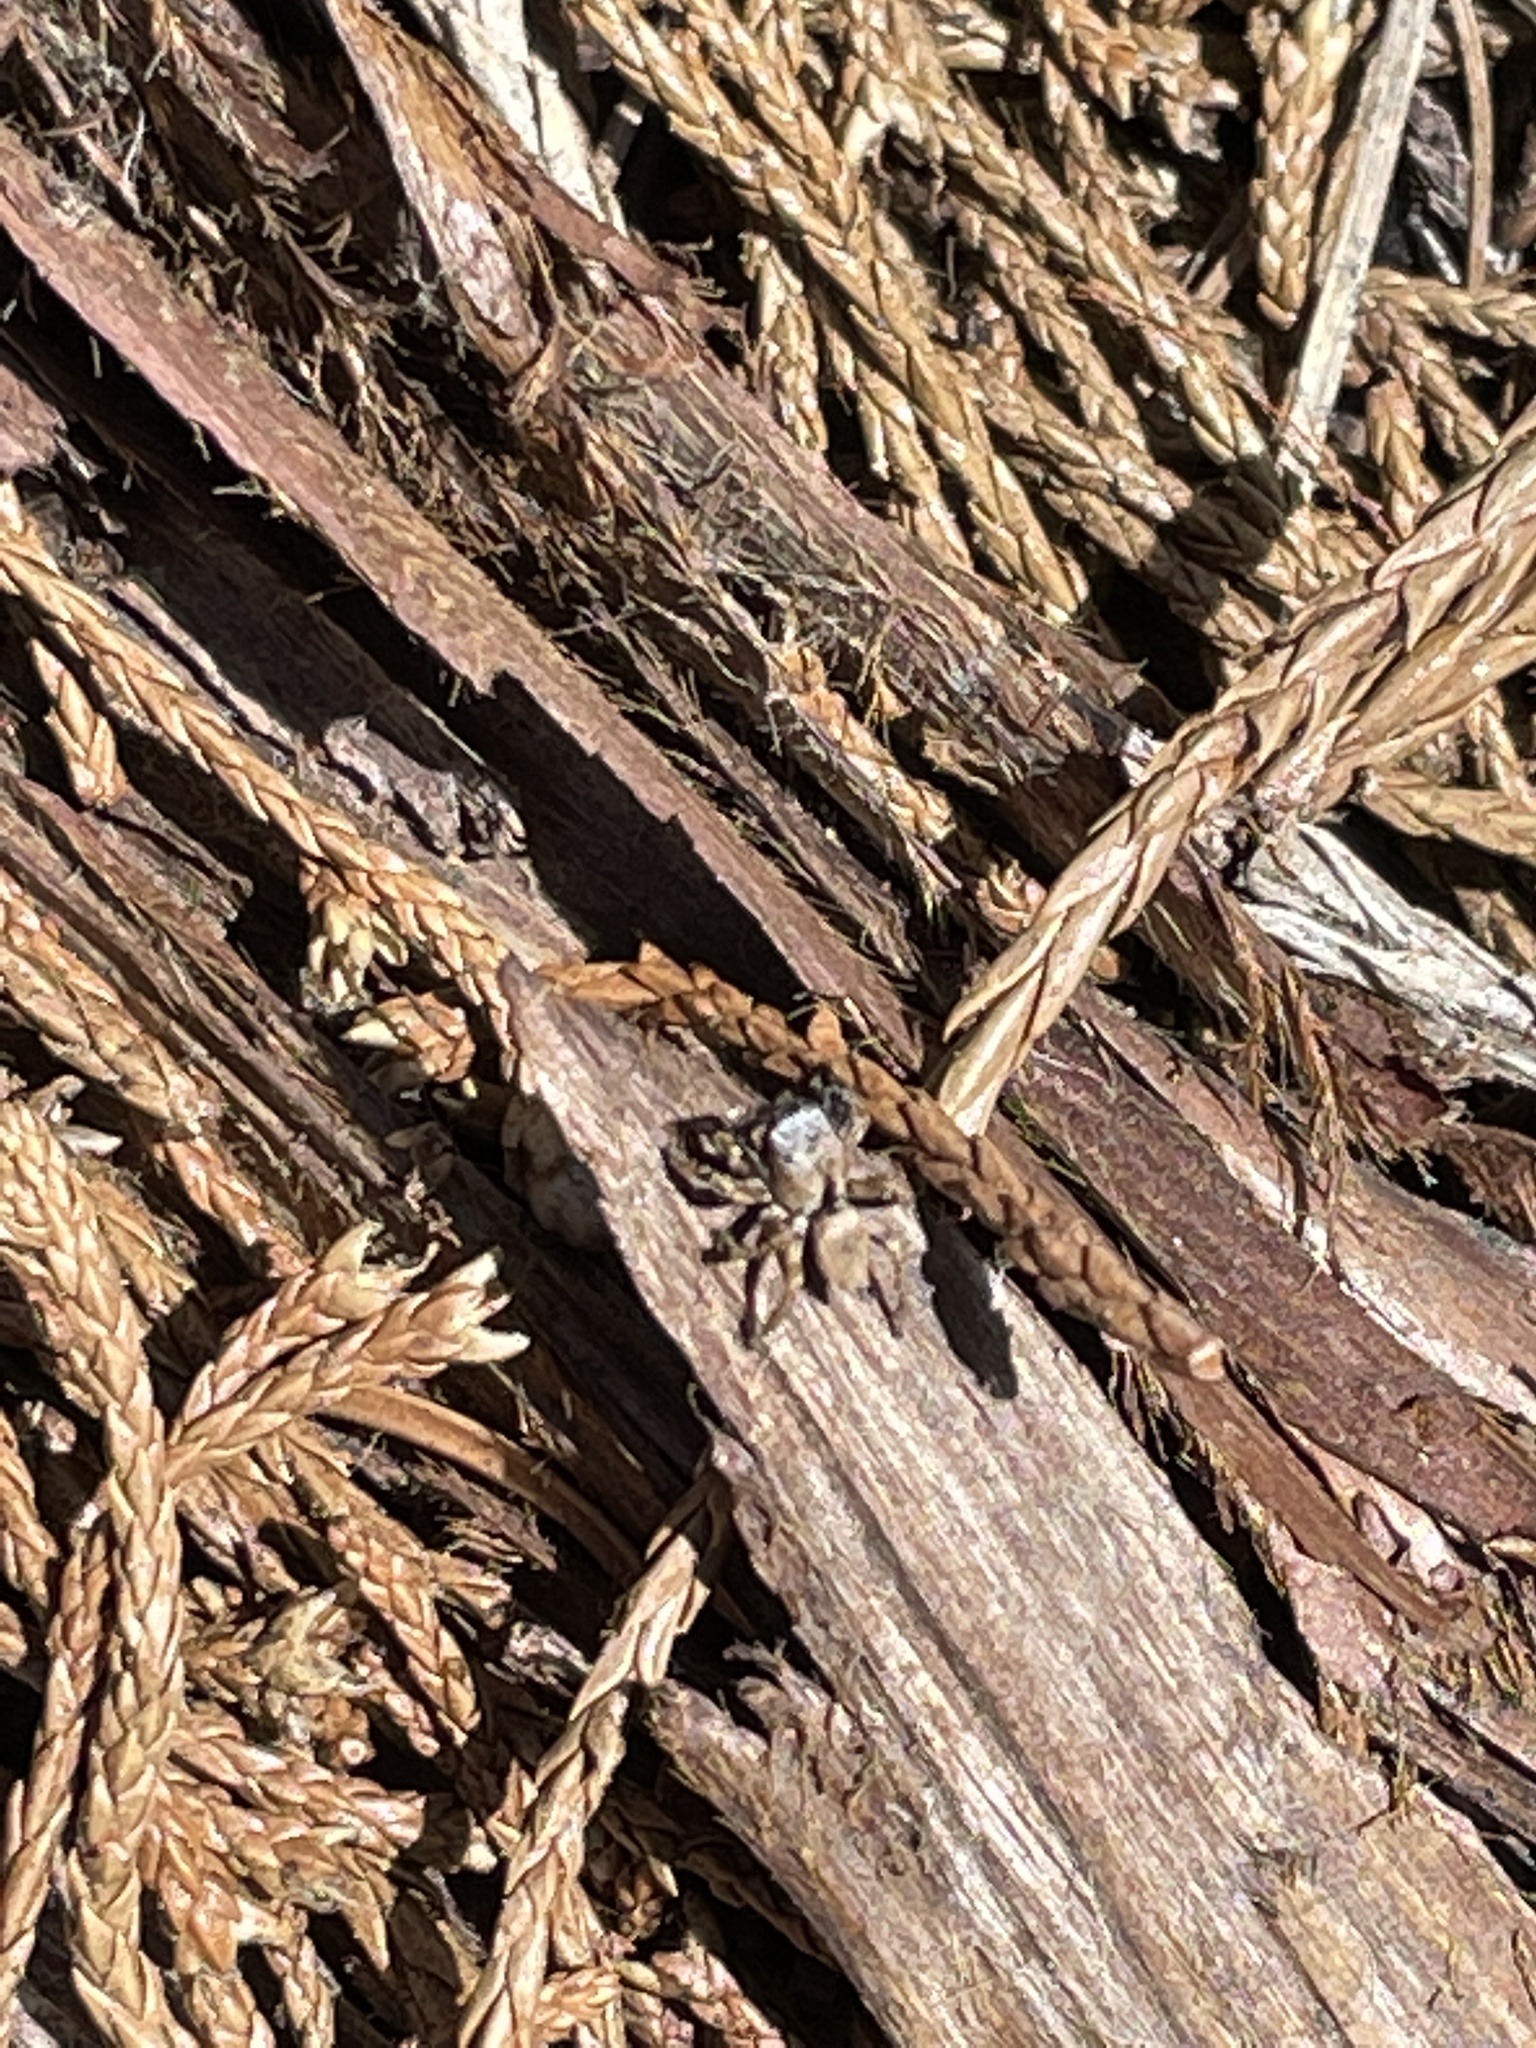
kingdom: Animalia
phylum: Arthropoda
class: Arachnida
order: Araneae
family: Salticidae
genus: Habronattus
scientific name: Habronattus oregonensis
